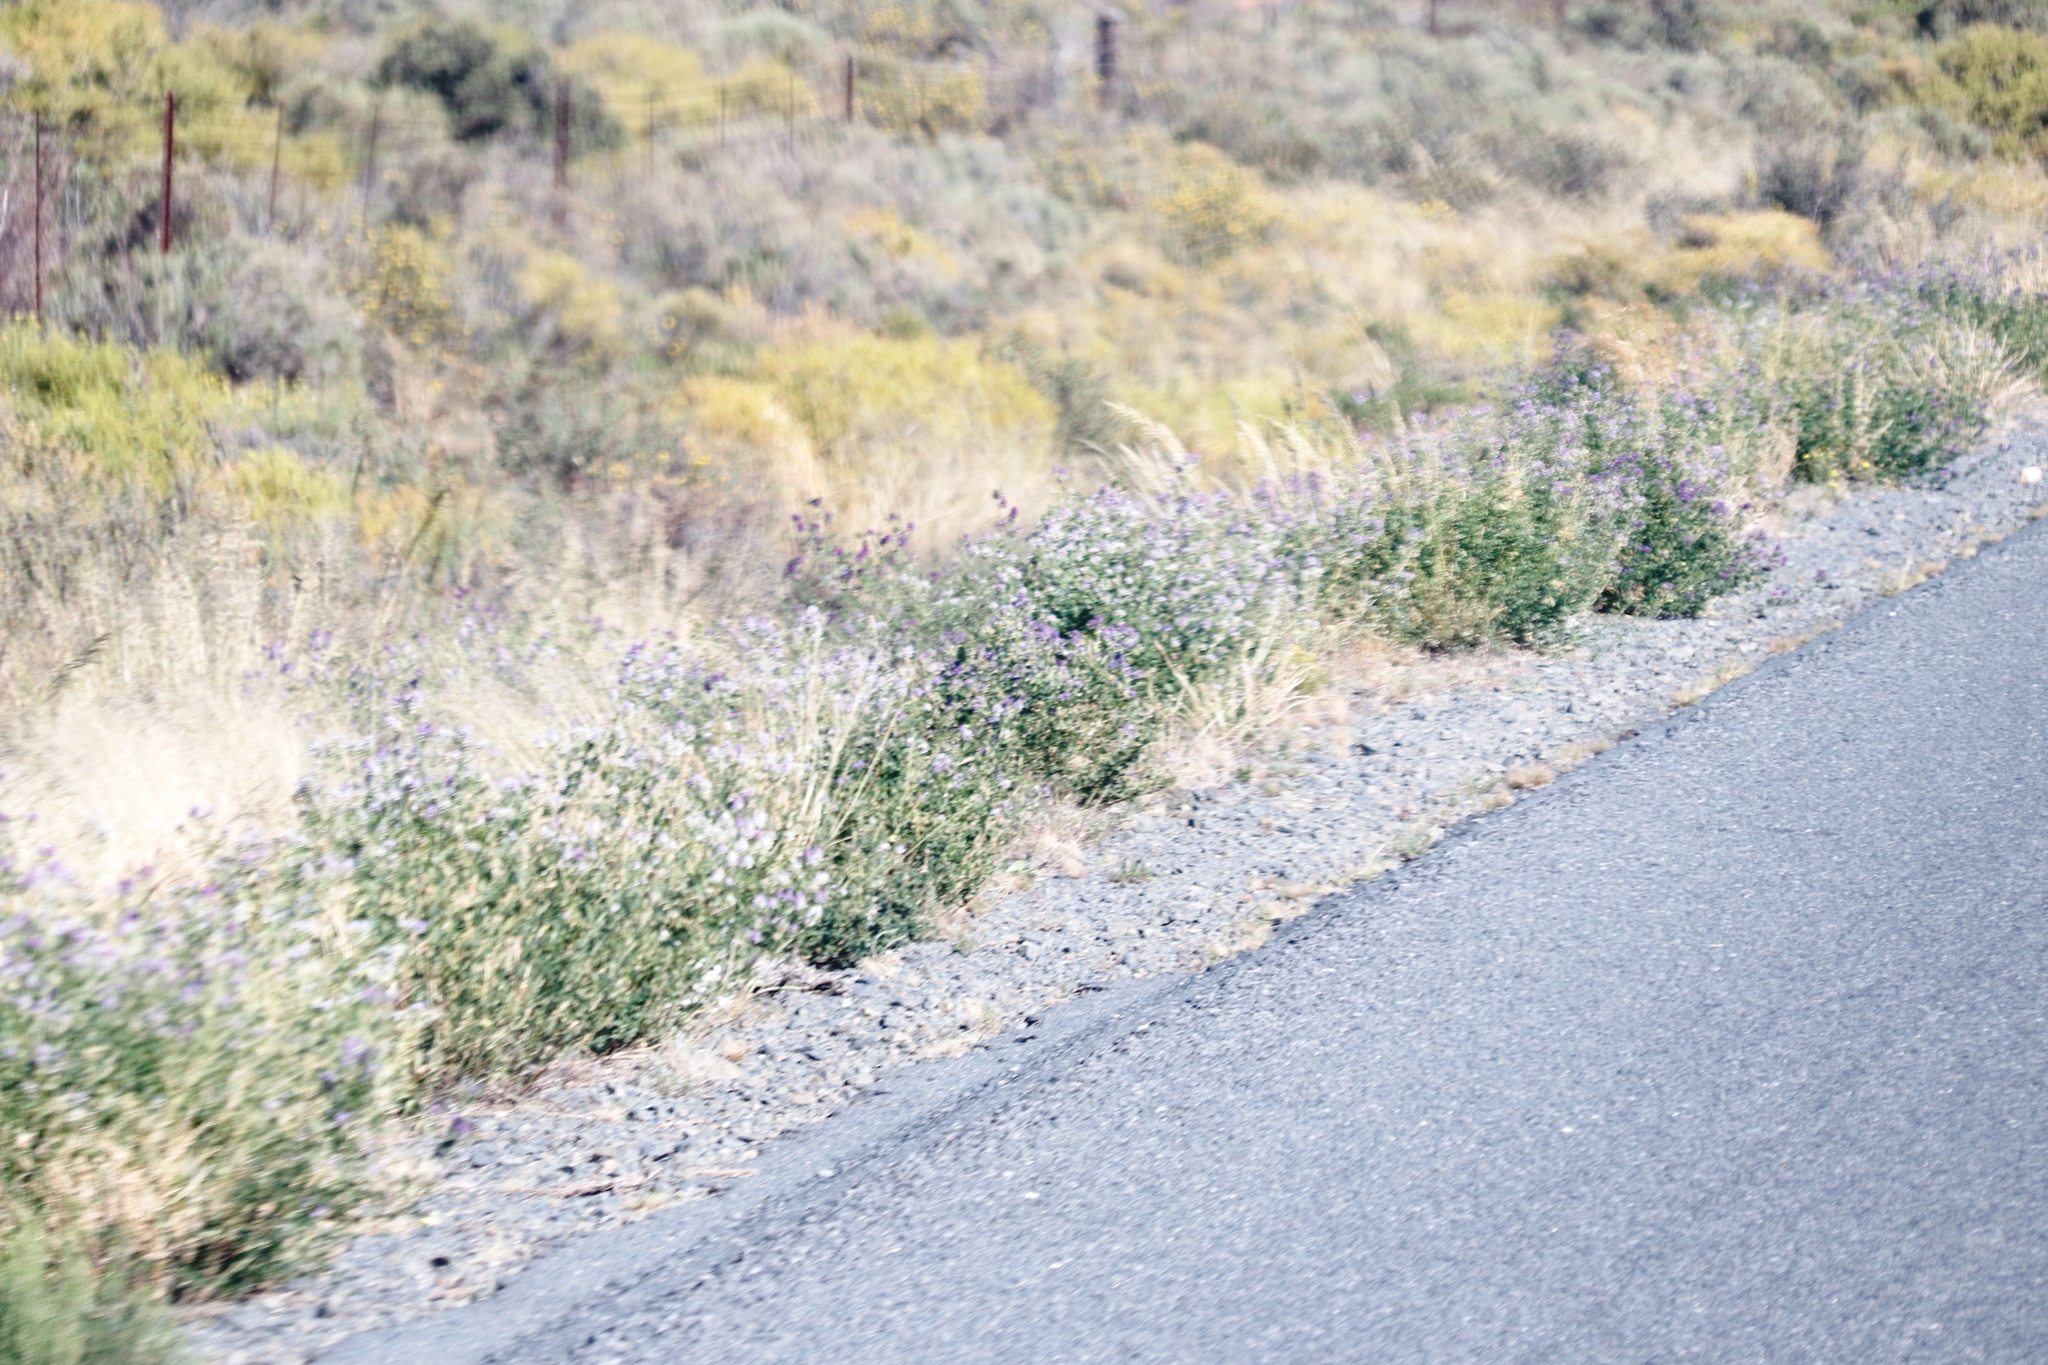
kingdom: Plantae
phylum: Tracheophyta
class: Magnoliopsida
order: Fabales
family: Fabaceae
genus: Medicago
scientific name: Medicago sativa
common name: Alfalfa
